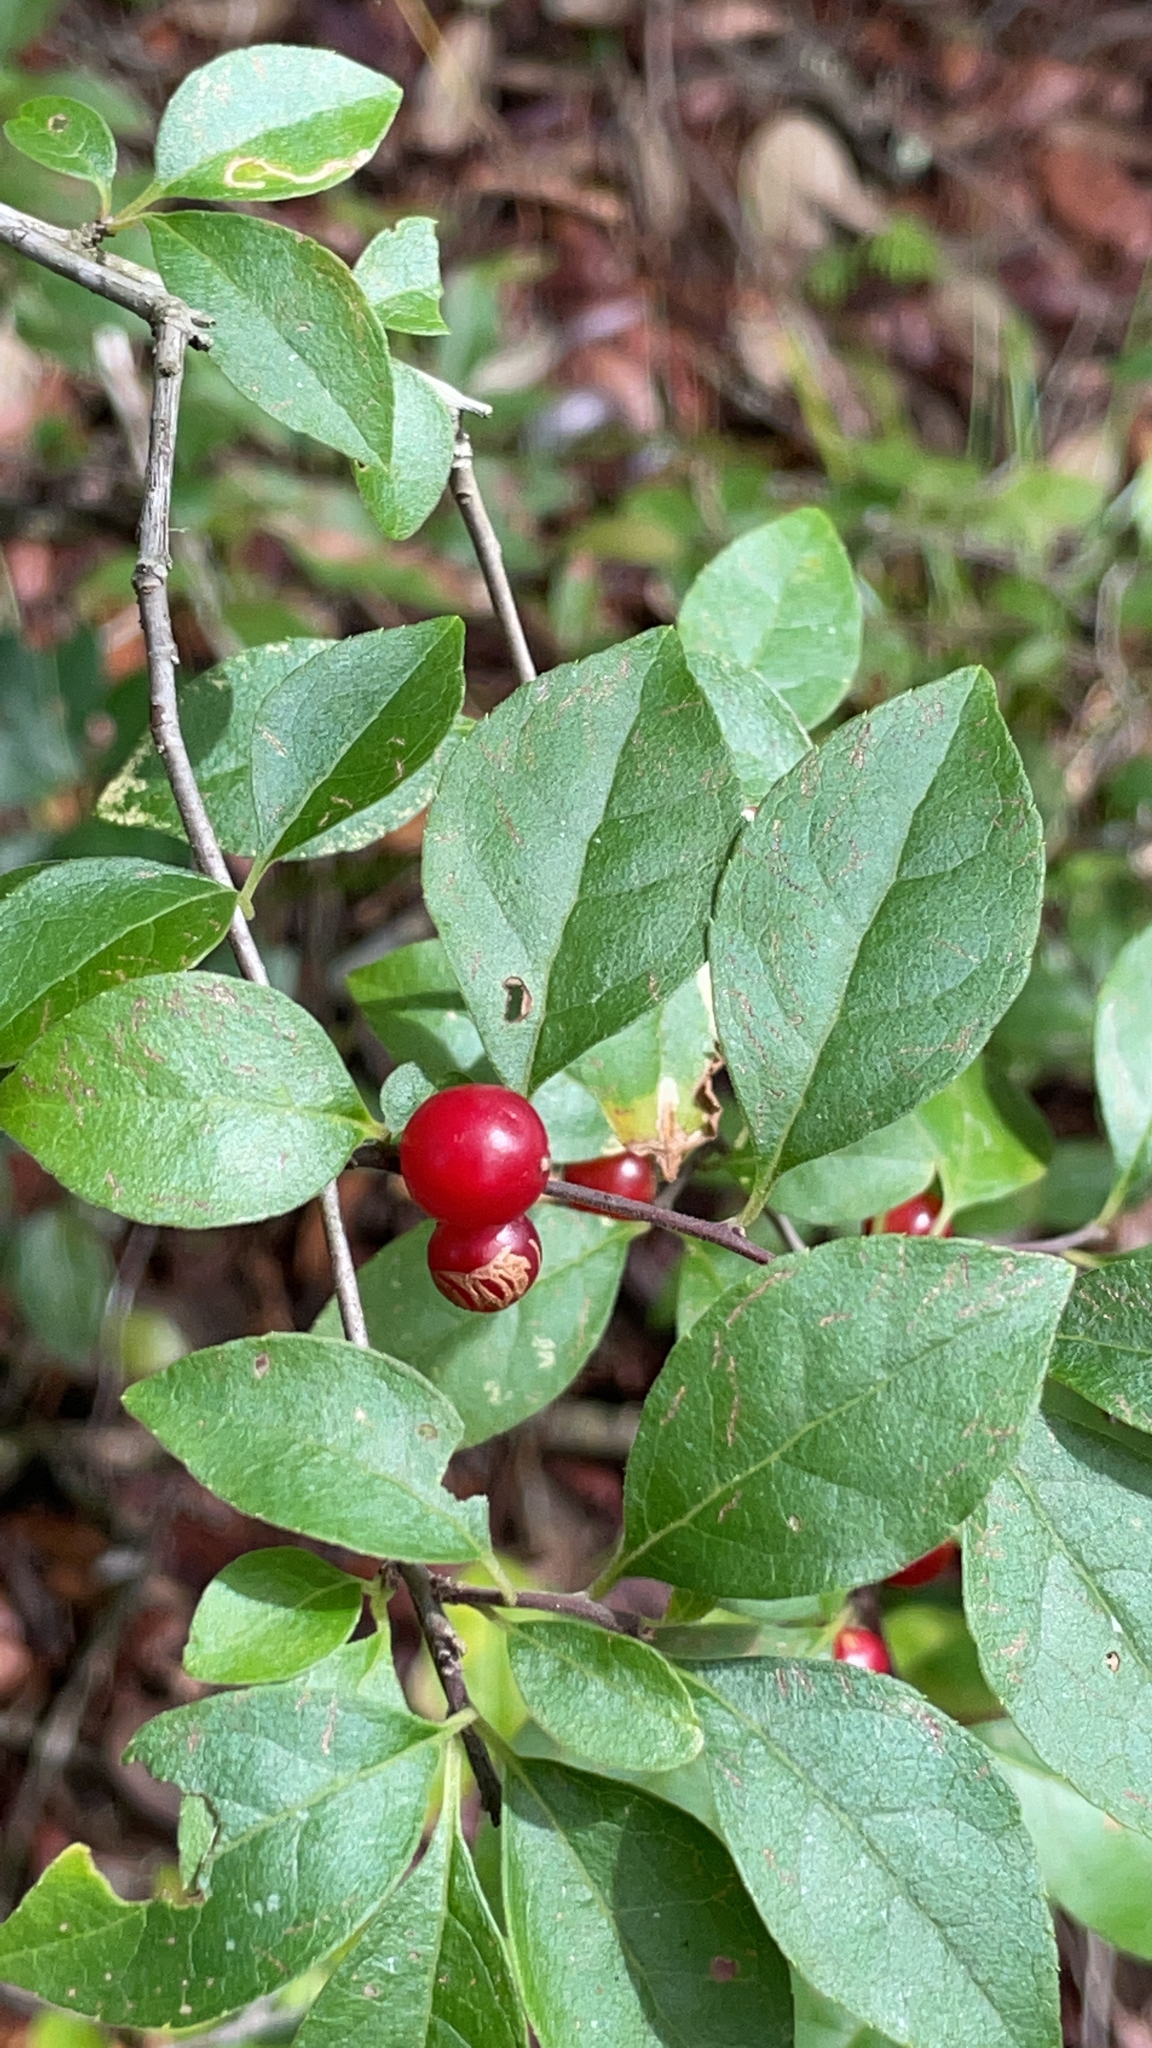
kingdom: Plantae
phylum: Tracheophyta
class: Magnoliopsida
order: Aquifoliales
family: Aquifoliaceae
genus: Ilex
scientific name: Ilex ambigua
